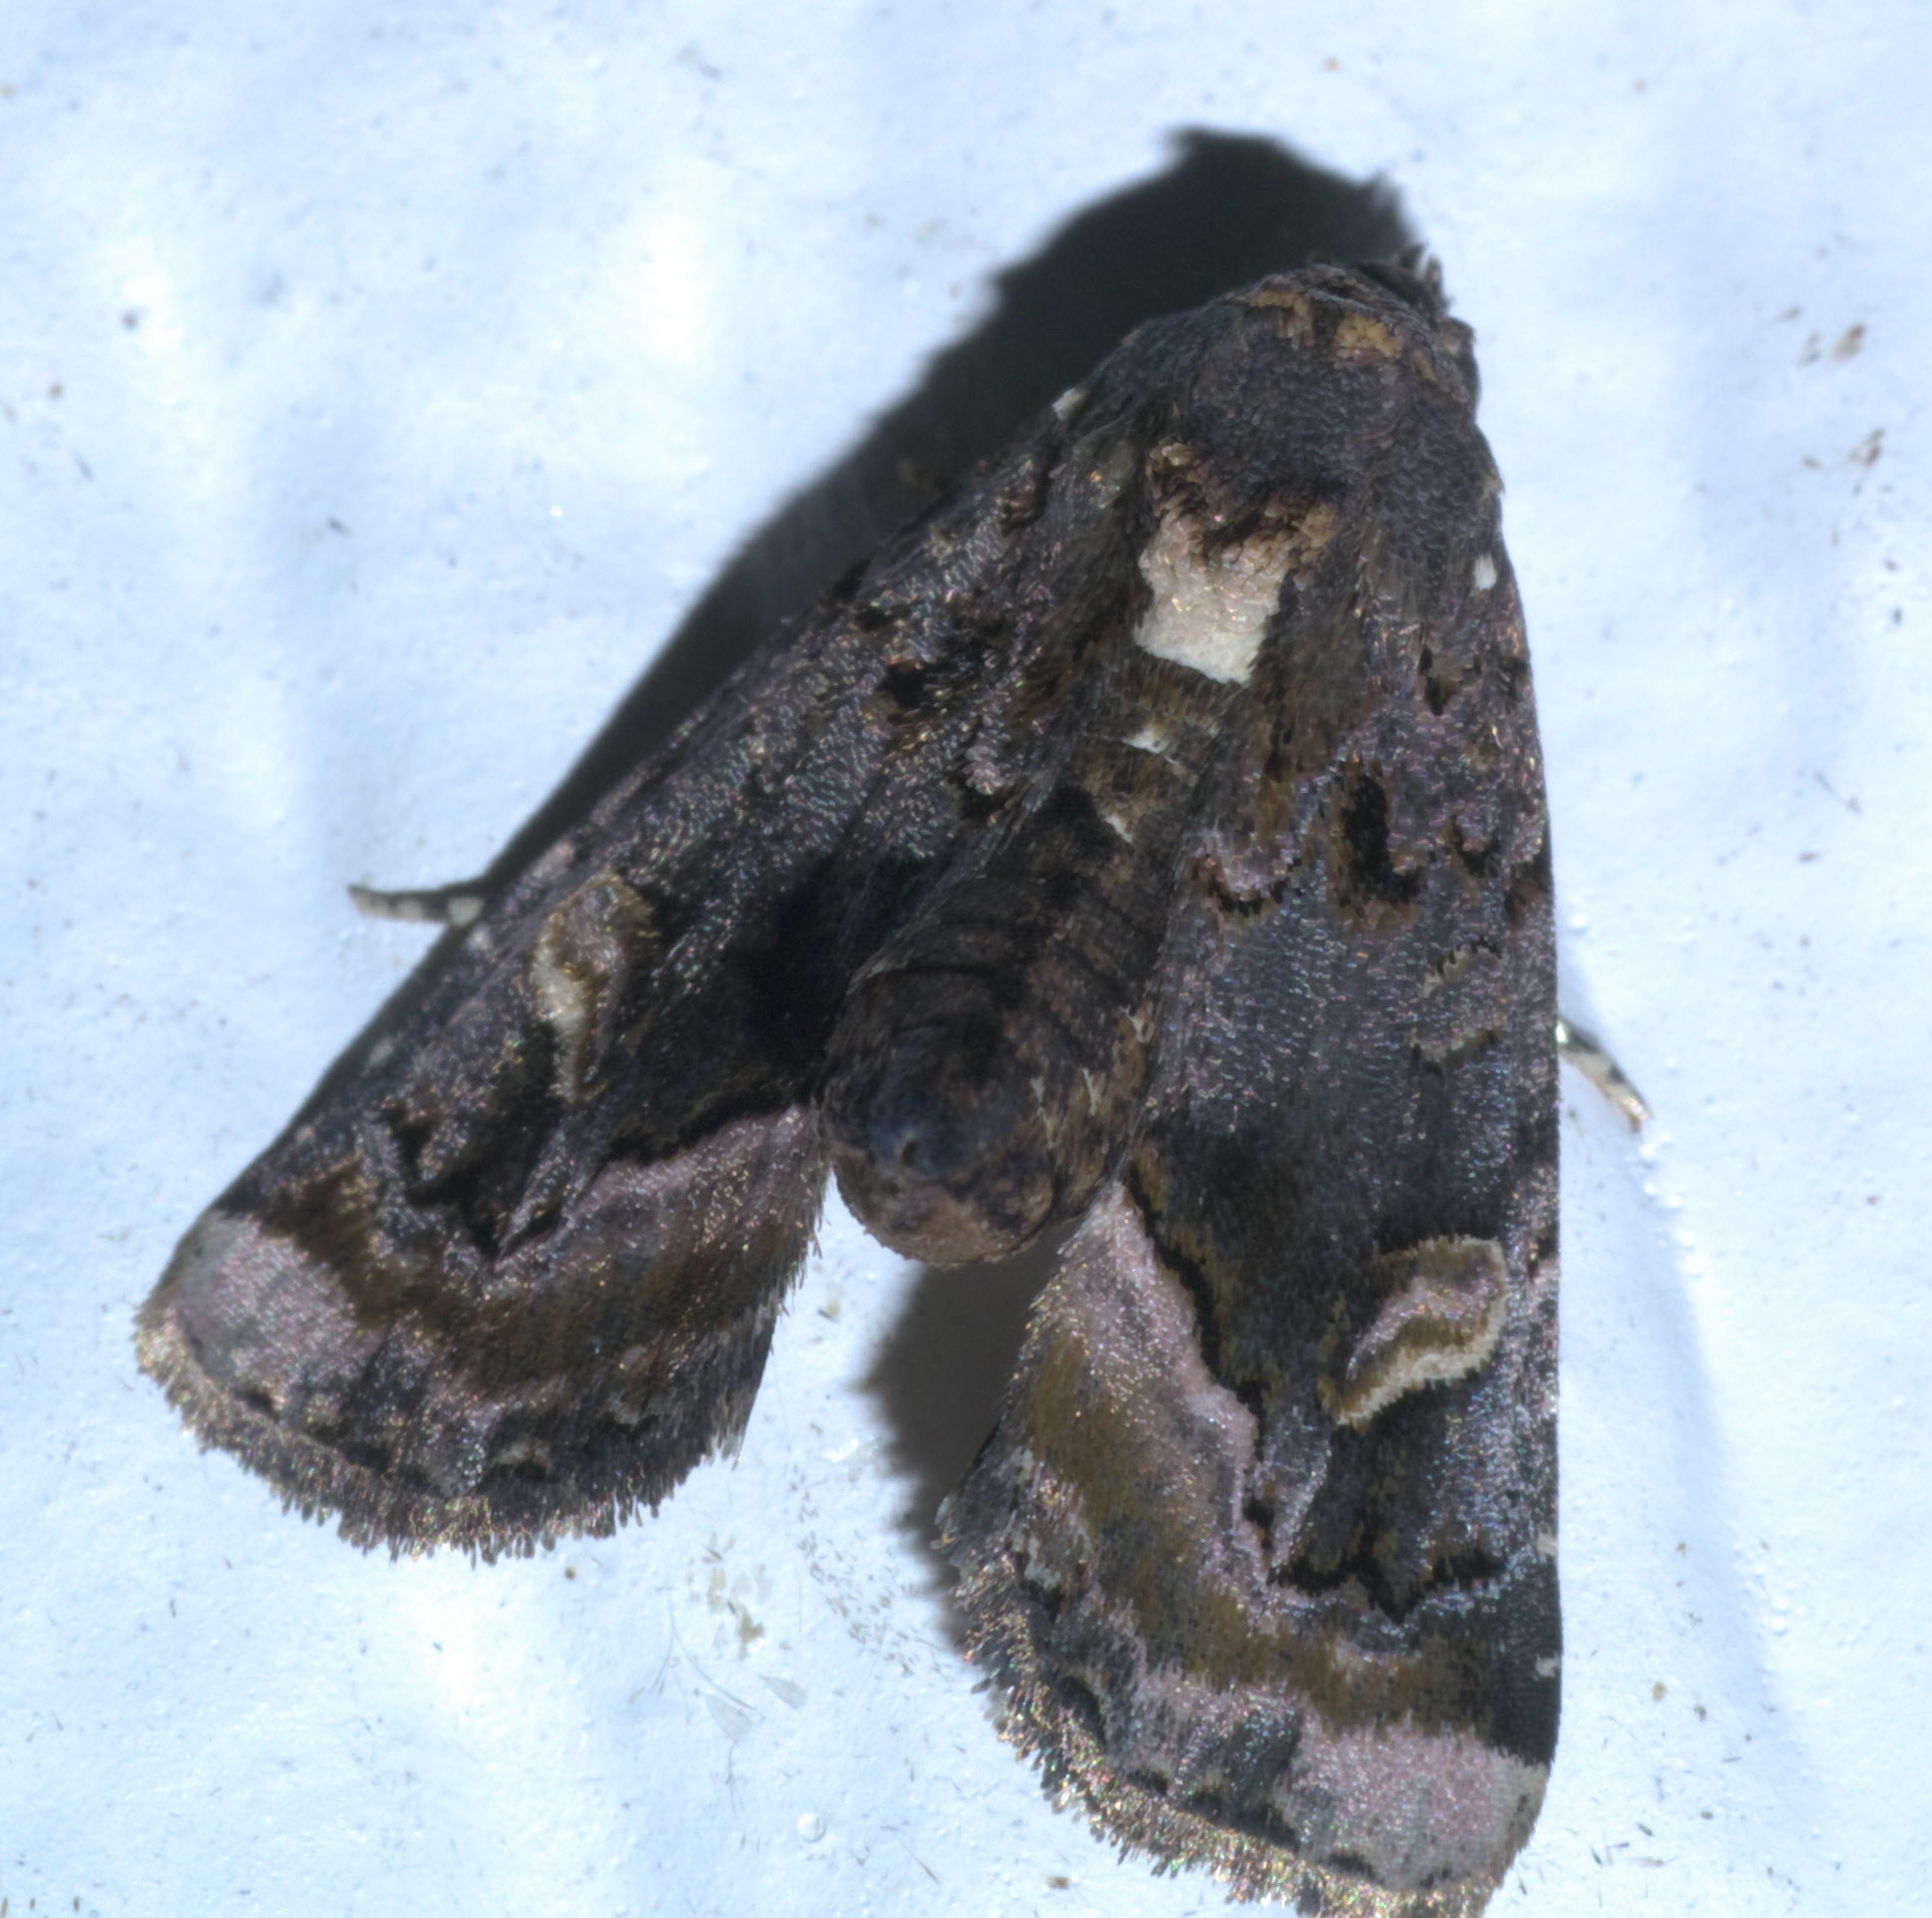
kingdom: Animalia
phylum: Arthropoda
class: Insecta
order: Lepidoptera
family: Noctuidae
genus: Homophoberia
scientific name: Homophoberia apicosa
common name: Black wedge-spot
